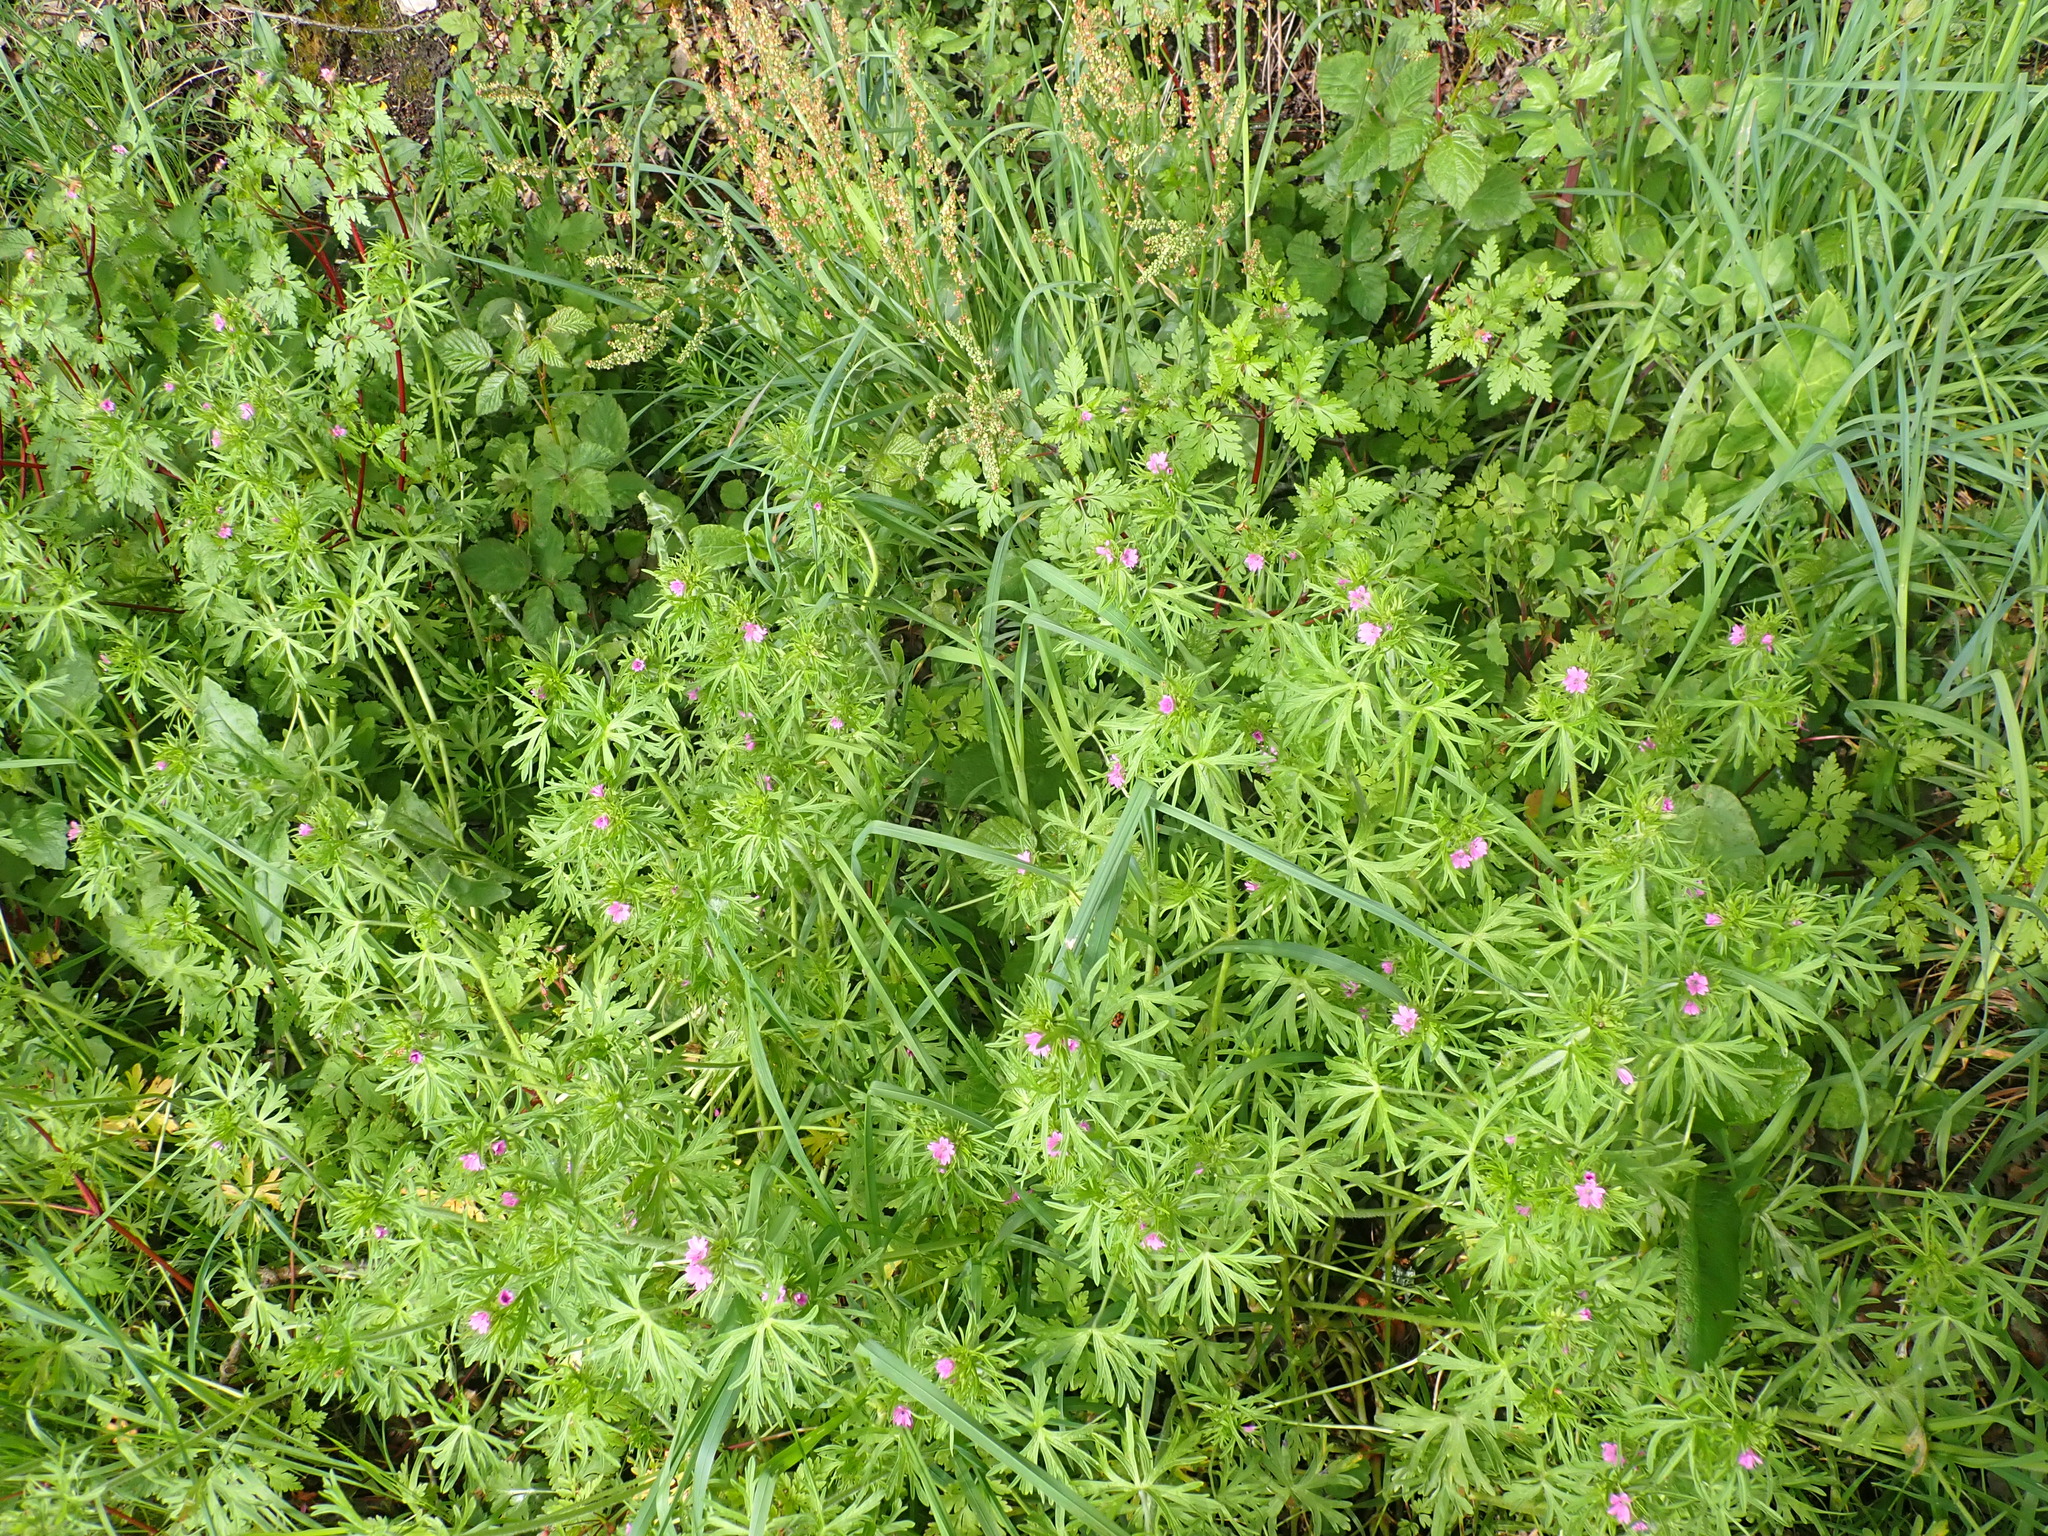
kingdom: Plantae
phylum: Tracheophyta
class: Magnoliopsida
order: Geraniales
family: Geraniaceae
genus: Geranium
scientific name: Geranium dissectum
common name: Cut-leaved crane's-bill
